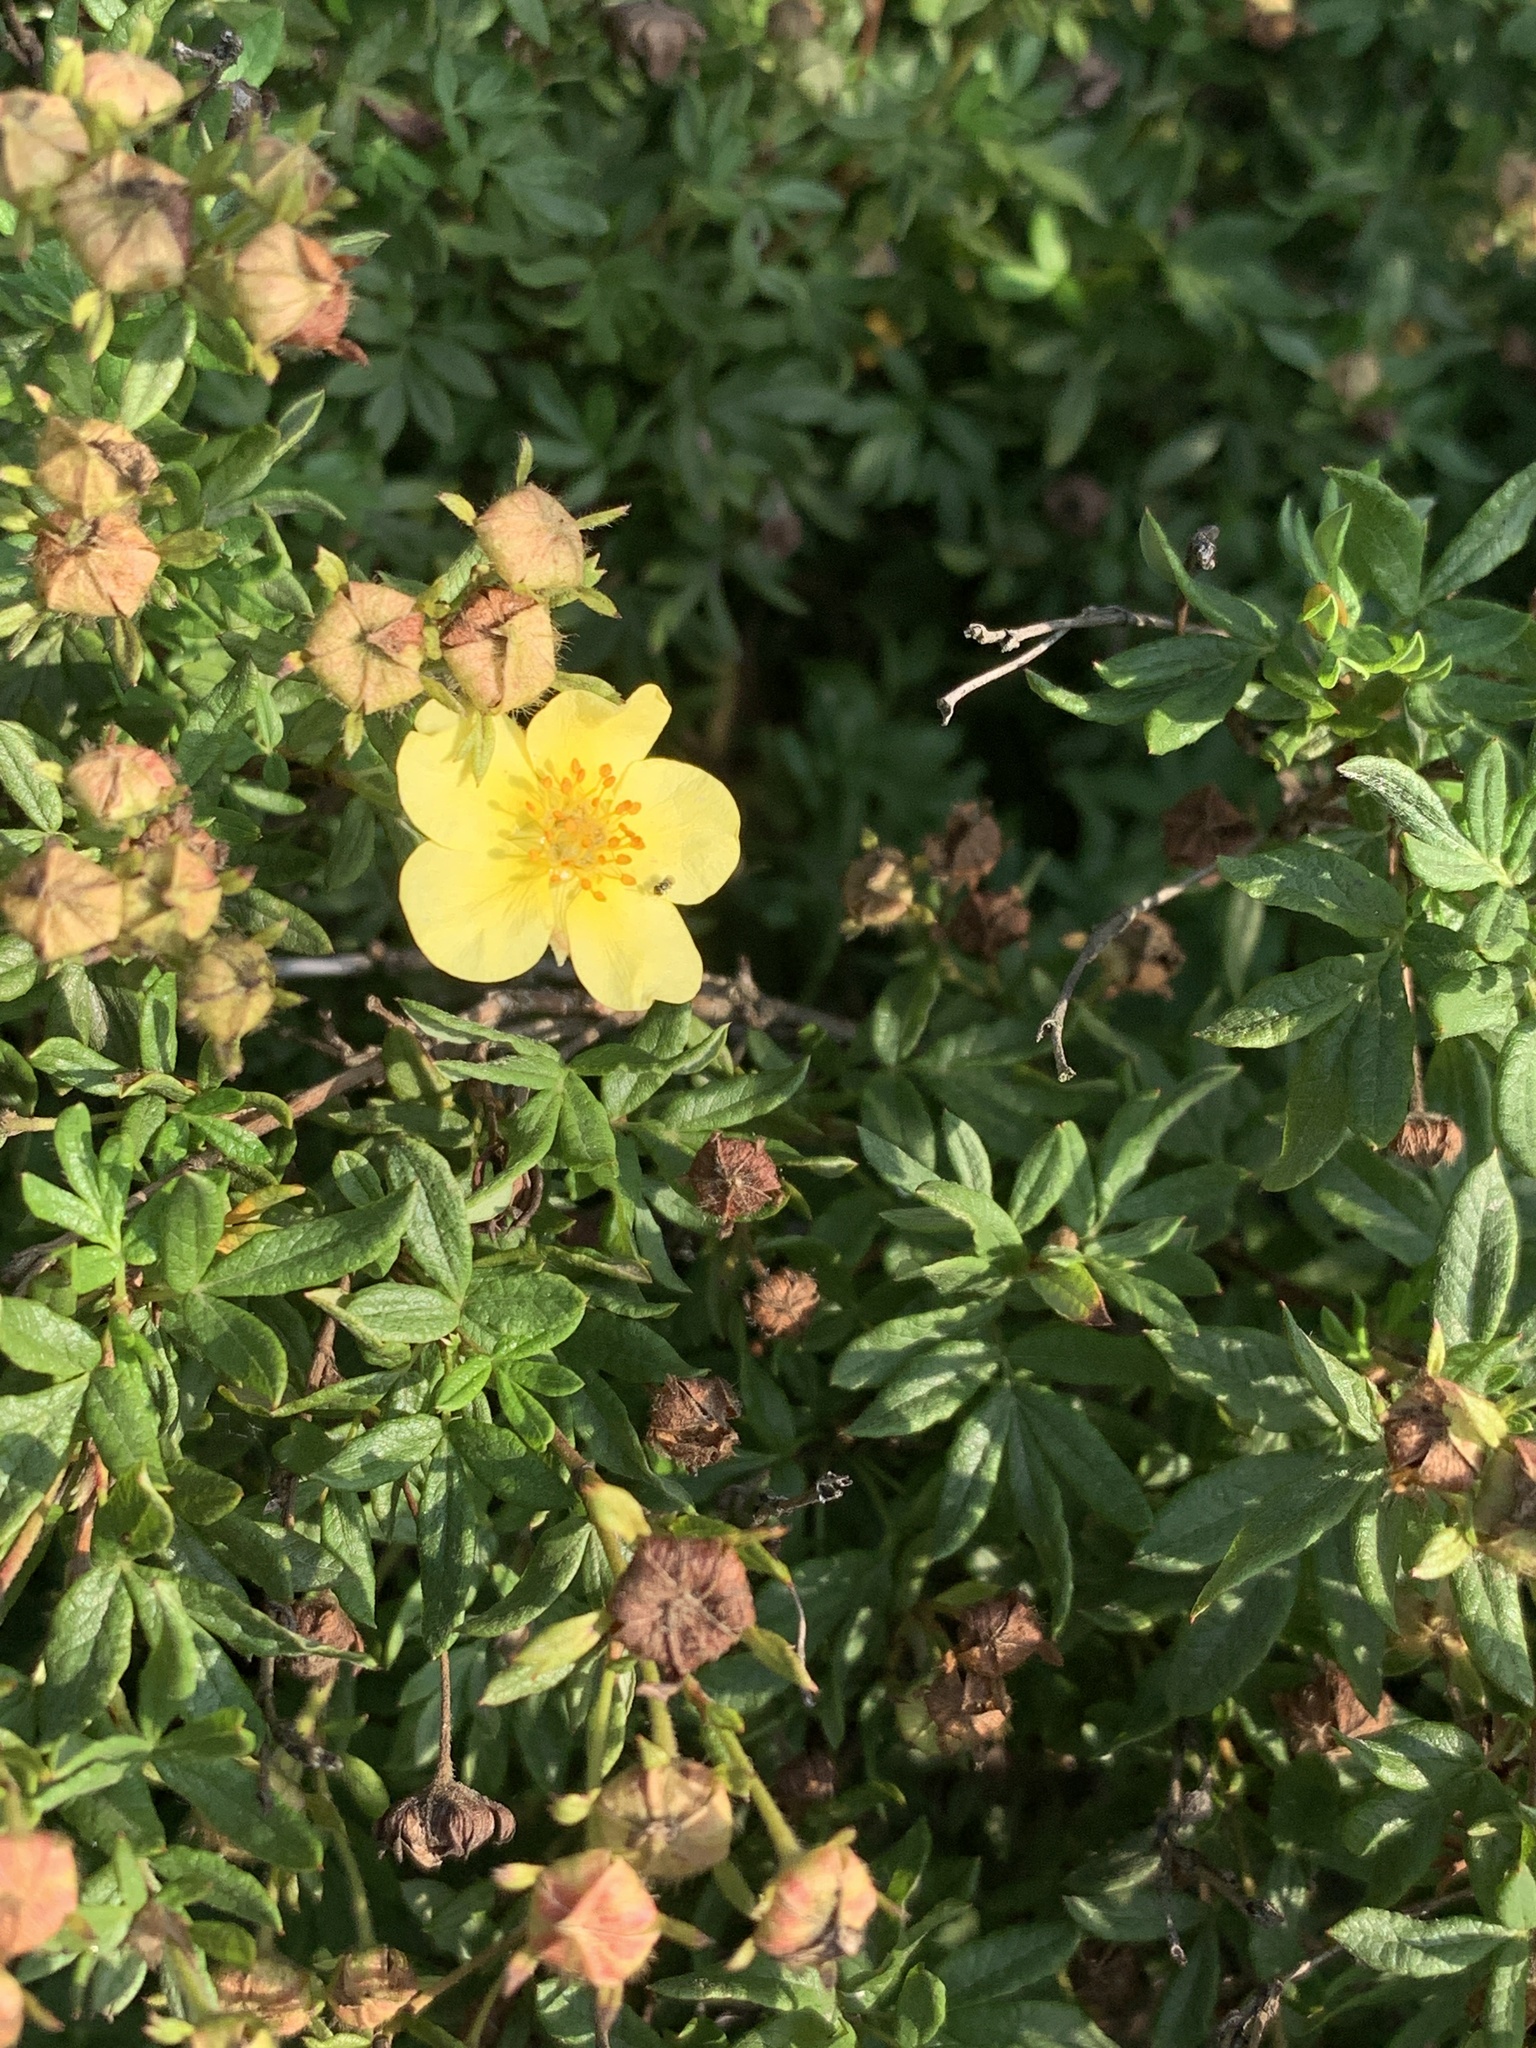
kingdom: Plantae
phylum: Tracheophyta
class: Magnoliopsida
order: Rosales
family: Rosaceae
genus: Dasiphora
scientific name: Dasiphora fruticosa
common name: Shrubby cinquefoil
